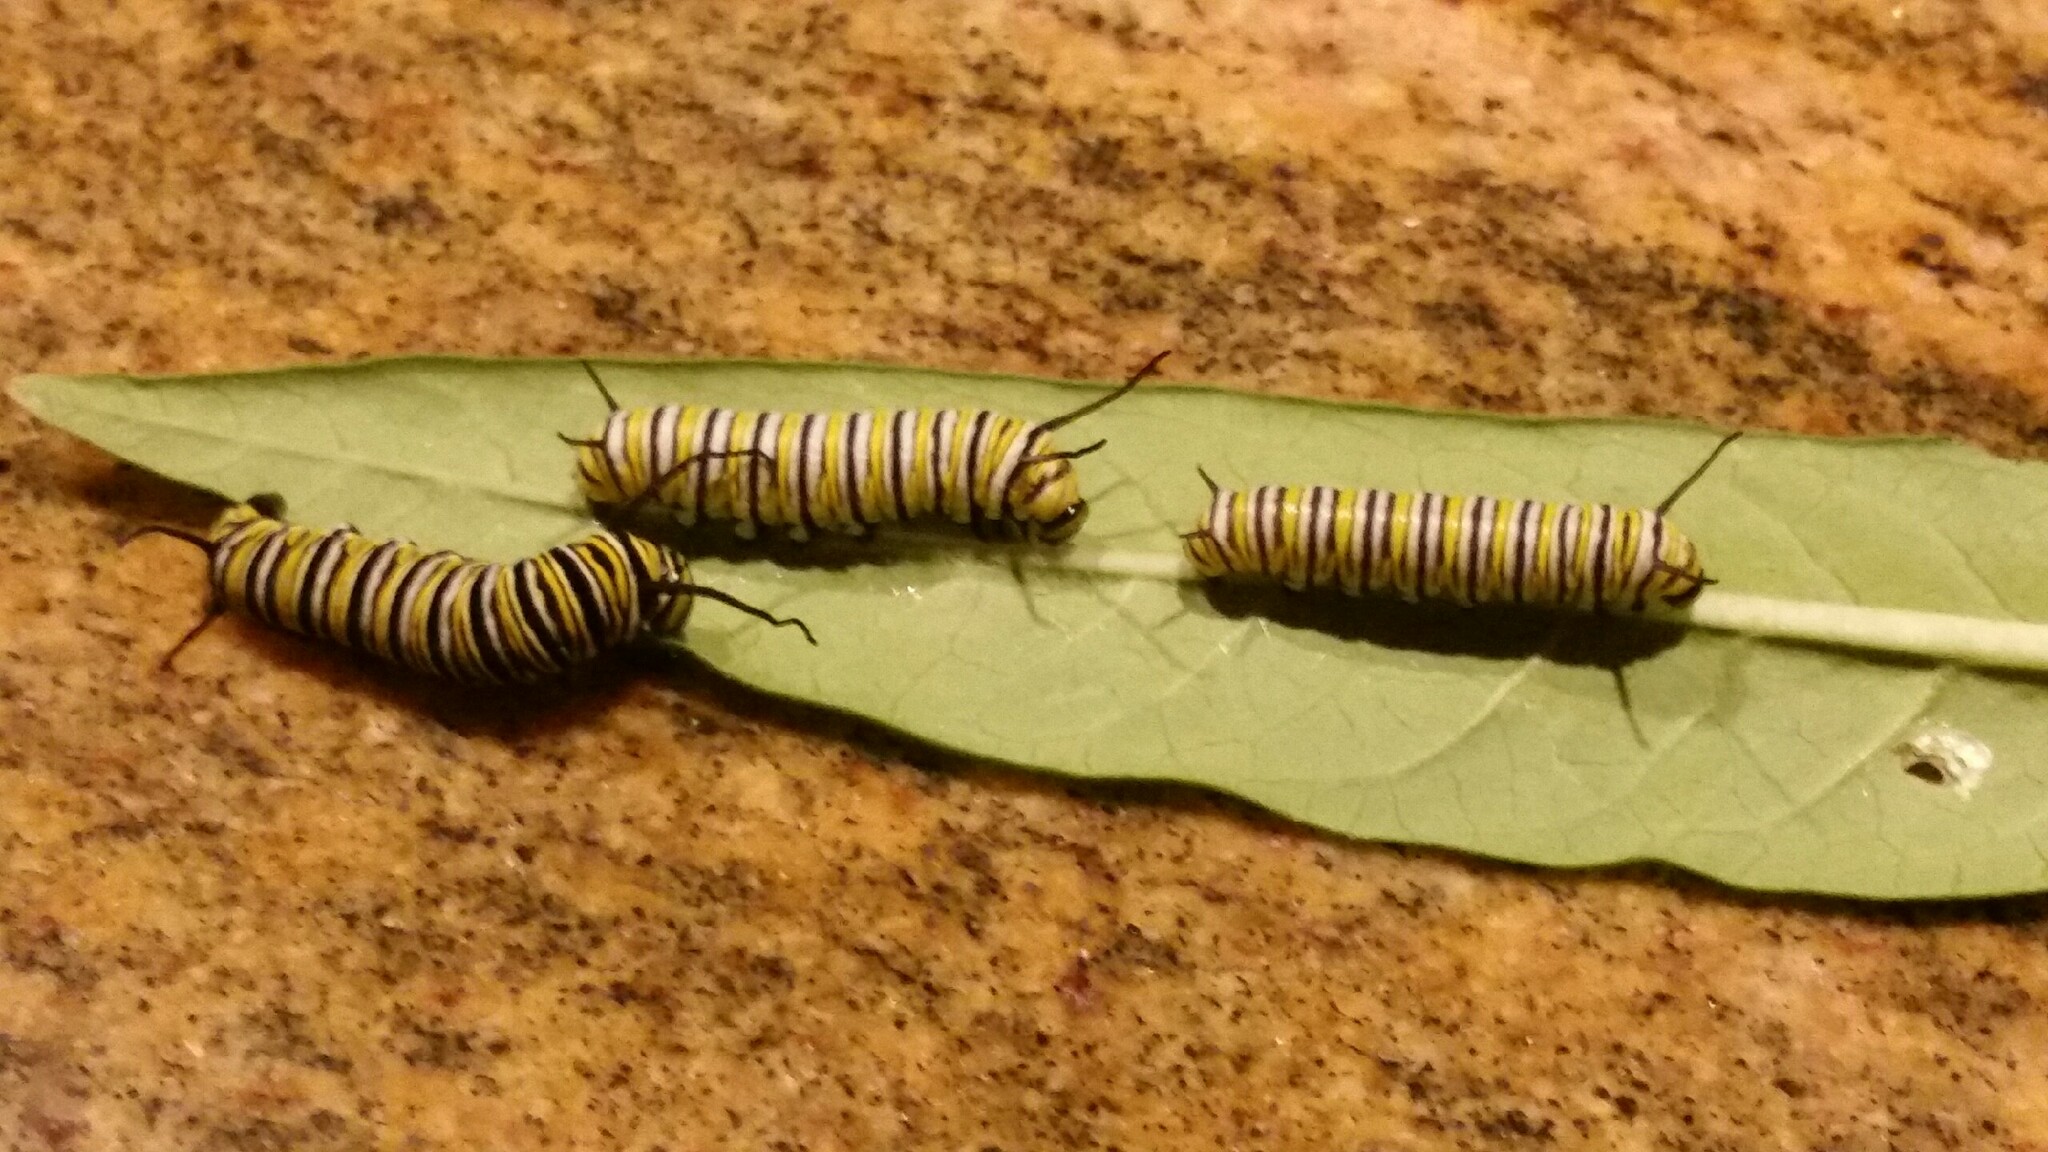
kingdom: Animalia
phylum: Arthropoda
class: Insecta
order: Lepidoptera
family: Nymphalidae
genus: Danaus
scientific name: Danaus plexippus
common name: Monarch
